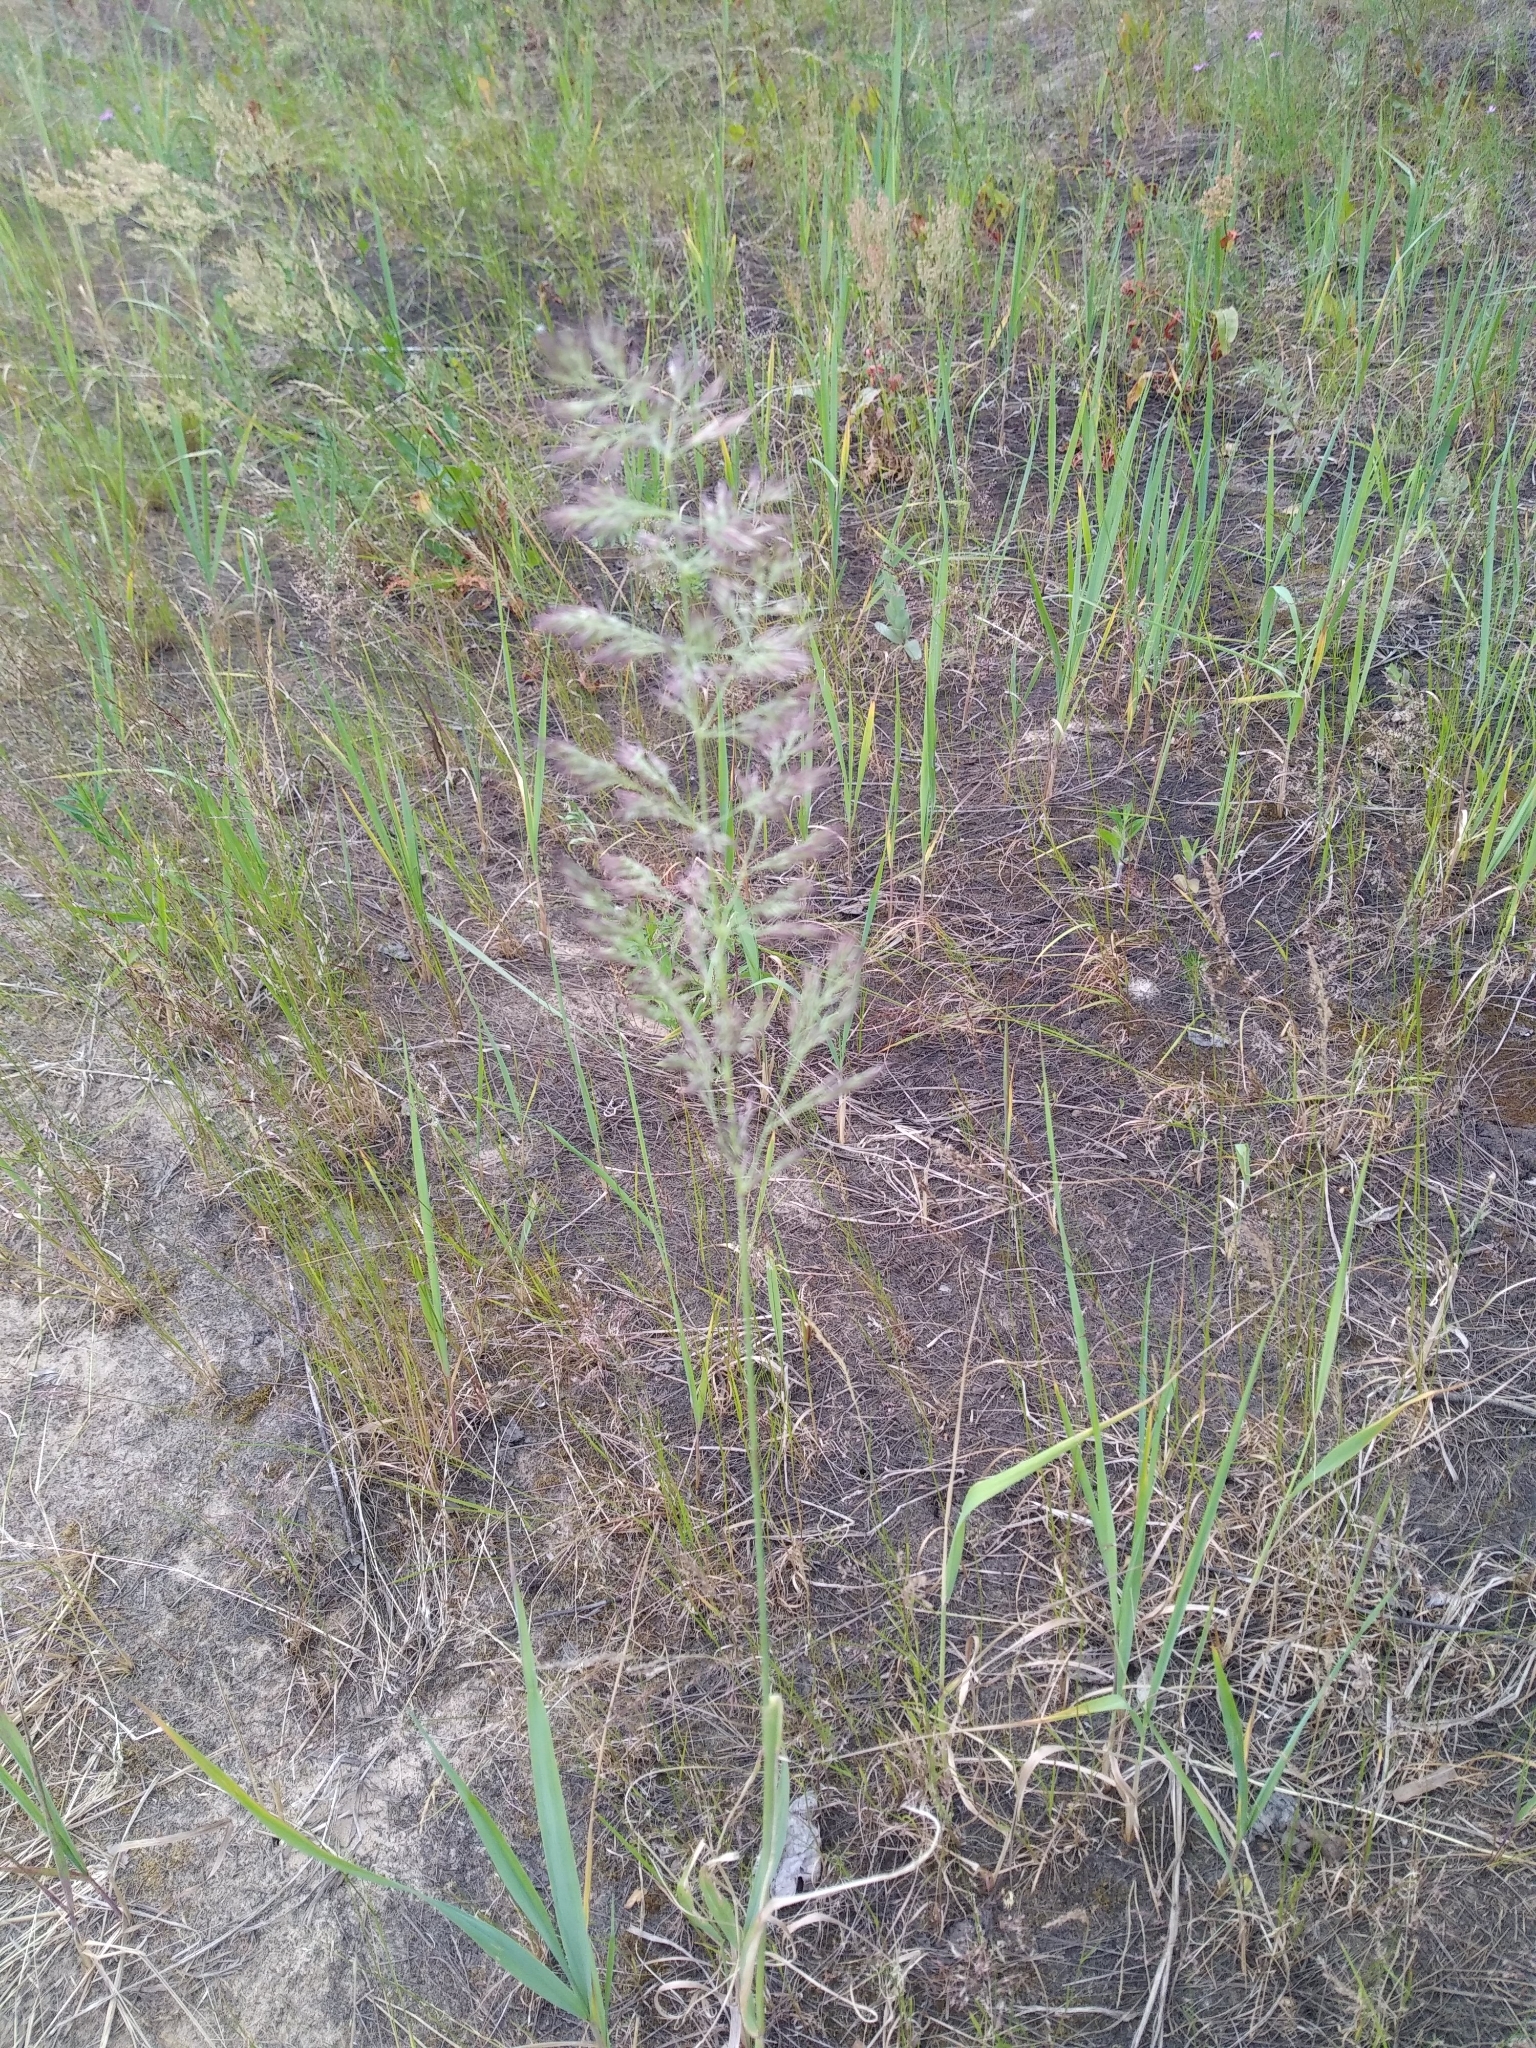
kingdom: Plantae
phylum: Tracheophyta
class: Liliopsida
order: Poales
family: Poaceae
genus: Calamagrostis
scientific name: Calamagrostis epigejos
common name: Wood small-reed
